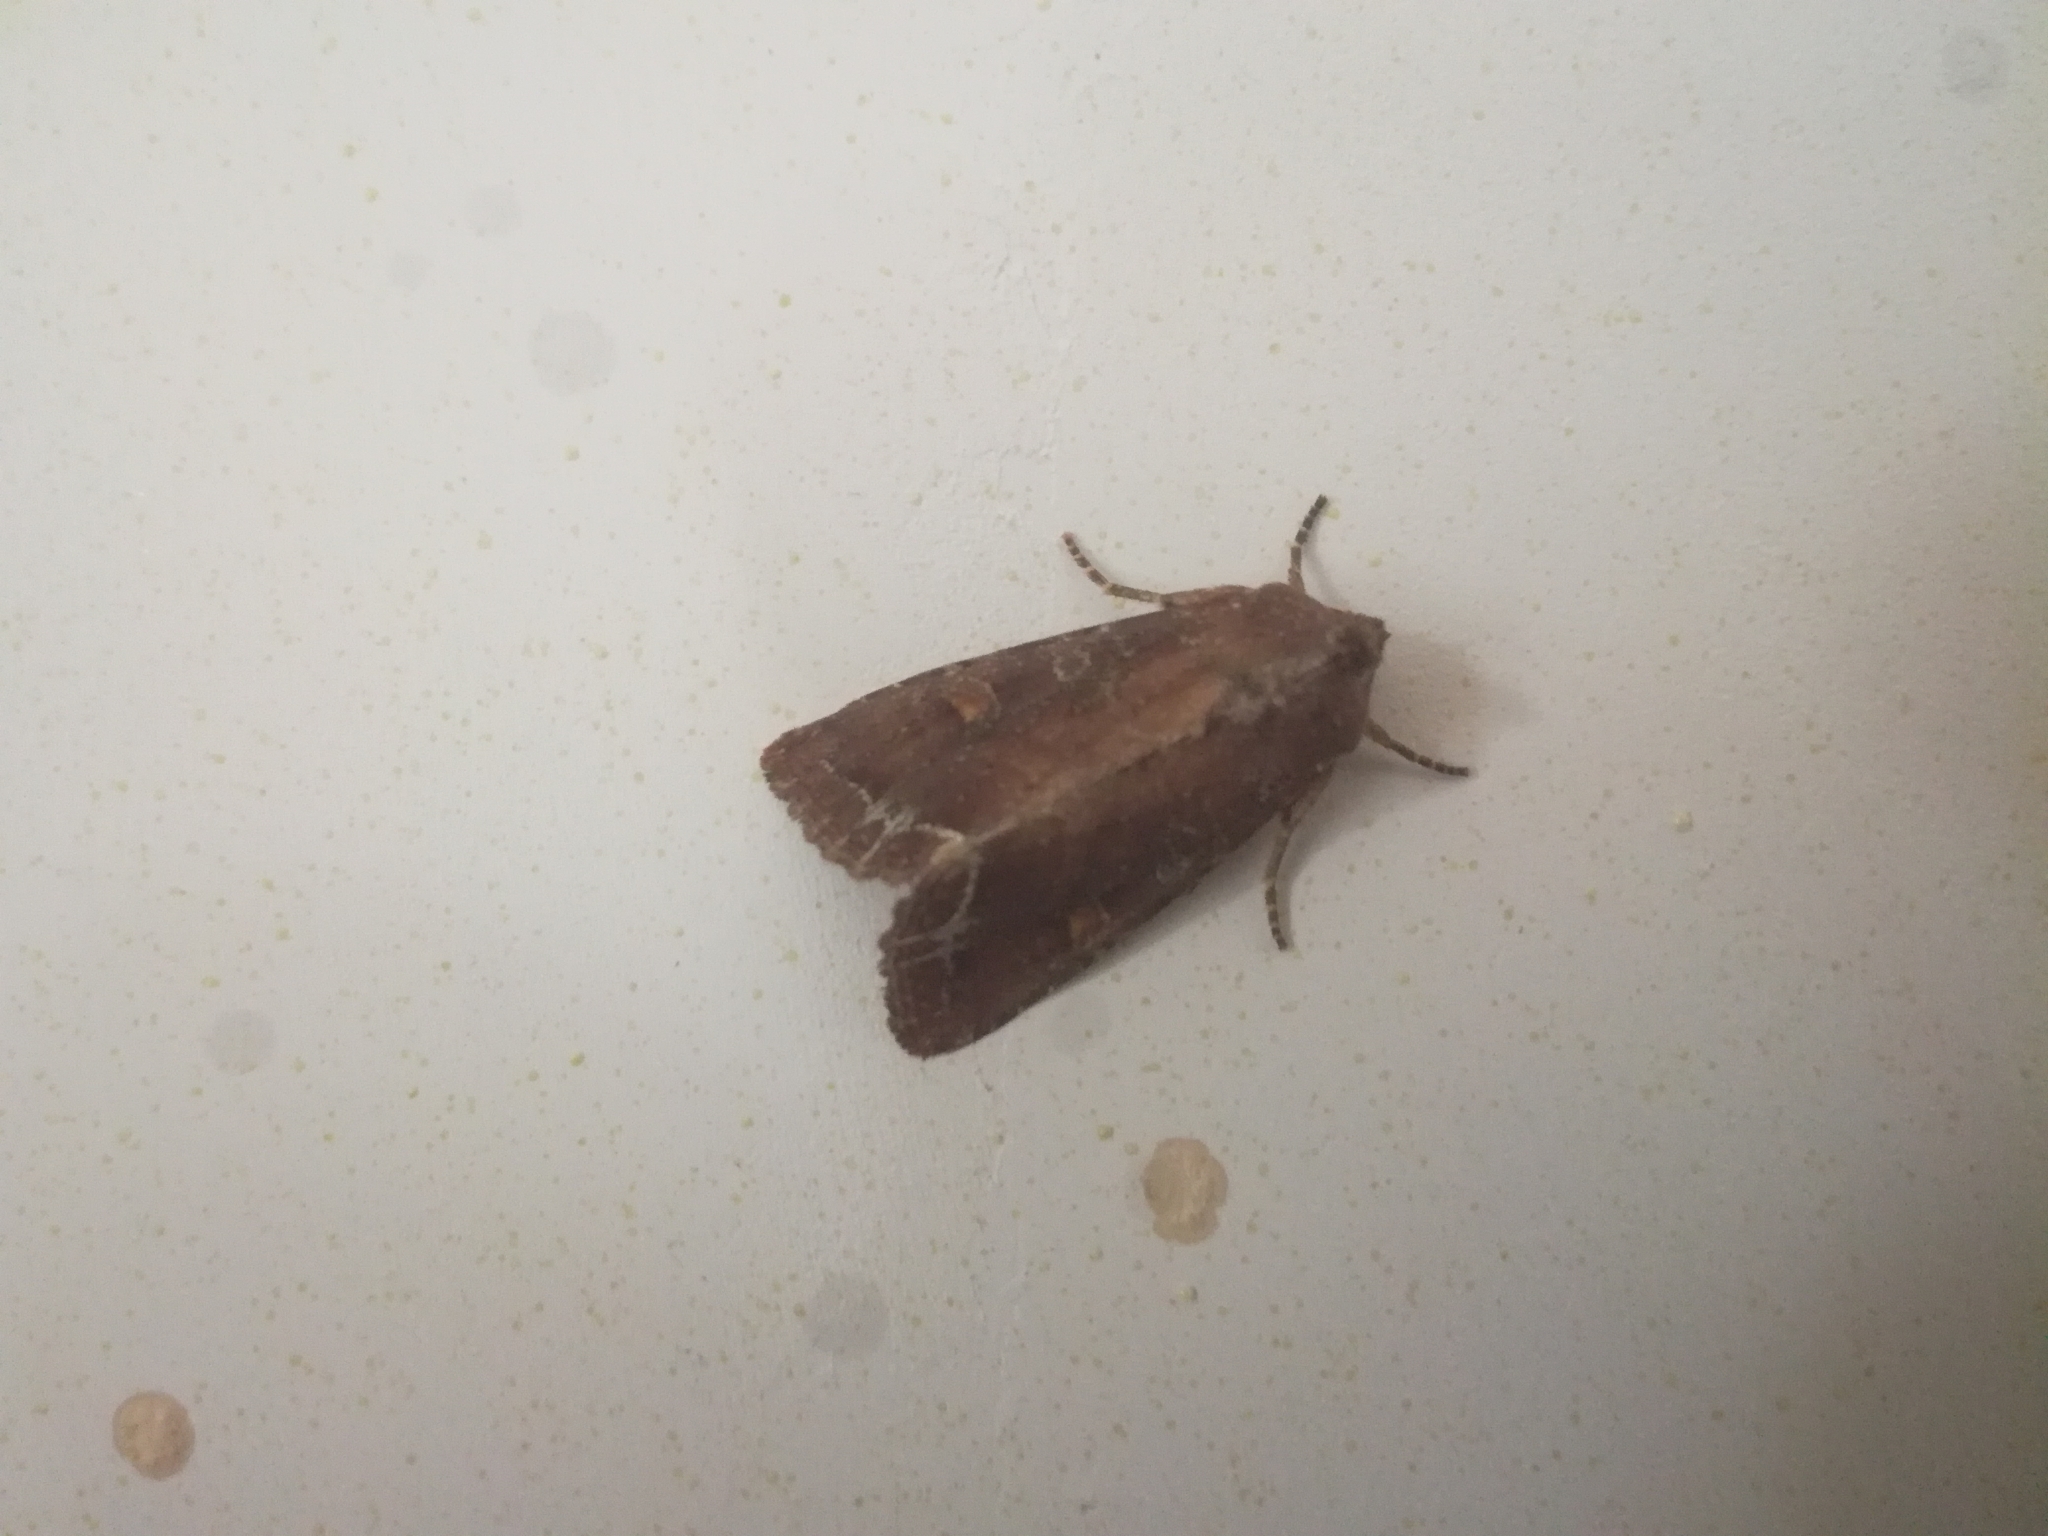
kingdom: Animalia
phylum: Arthropoda
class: Insecta
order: Lepidoptera
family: Noctuidae
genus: Lacanobia
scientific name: Lacanobia oleracea
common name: Bright-line brown-eye
